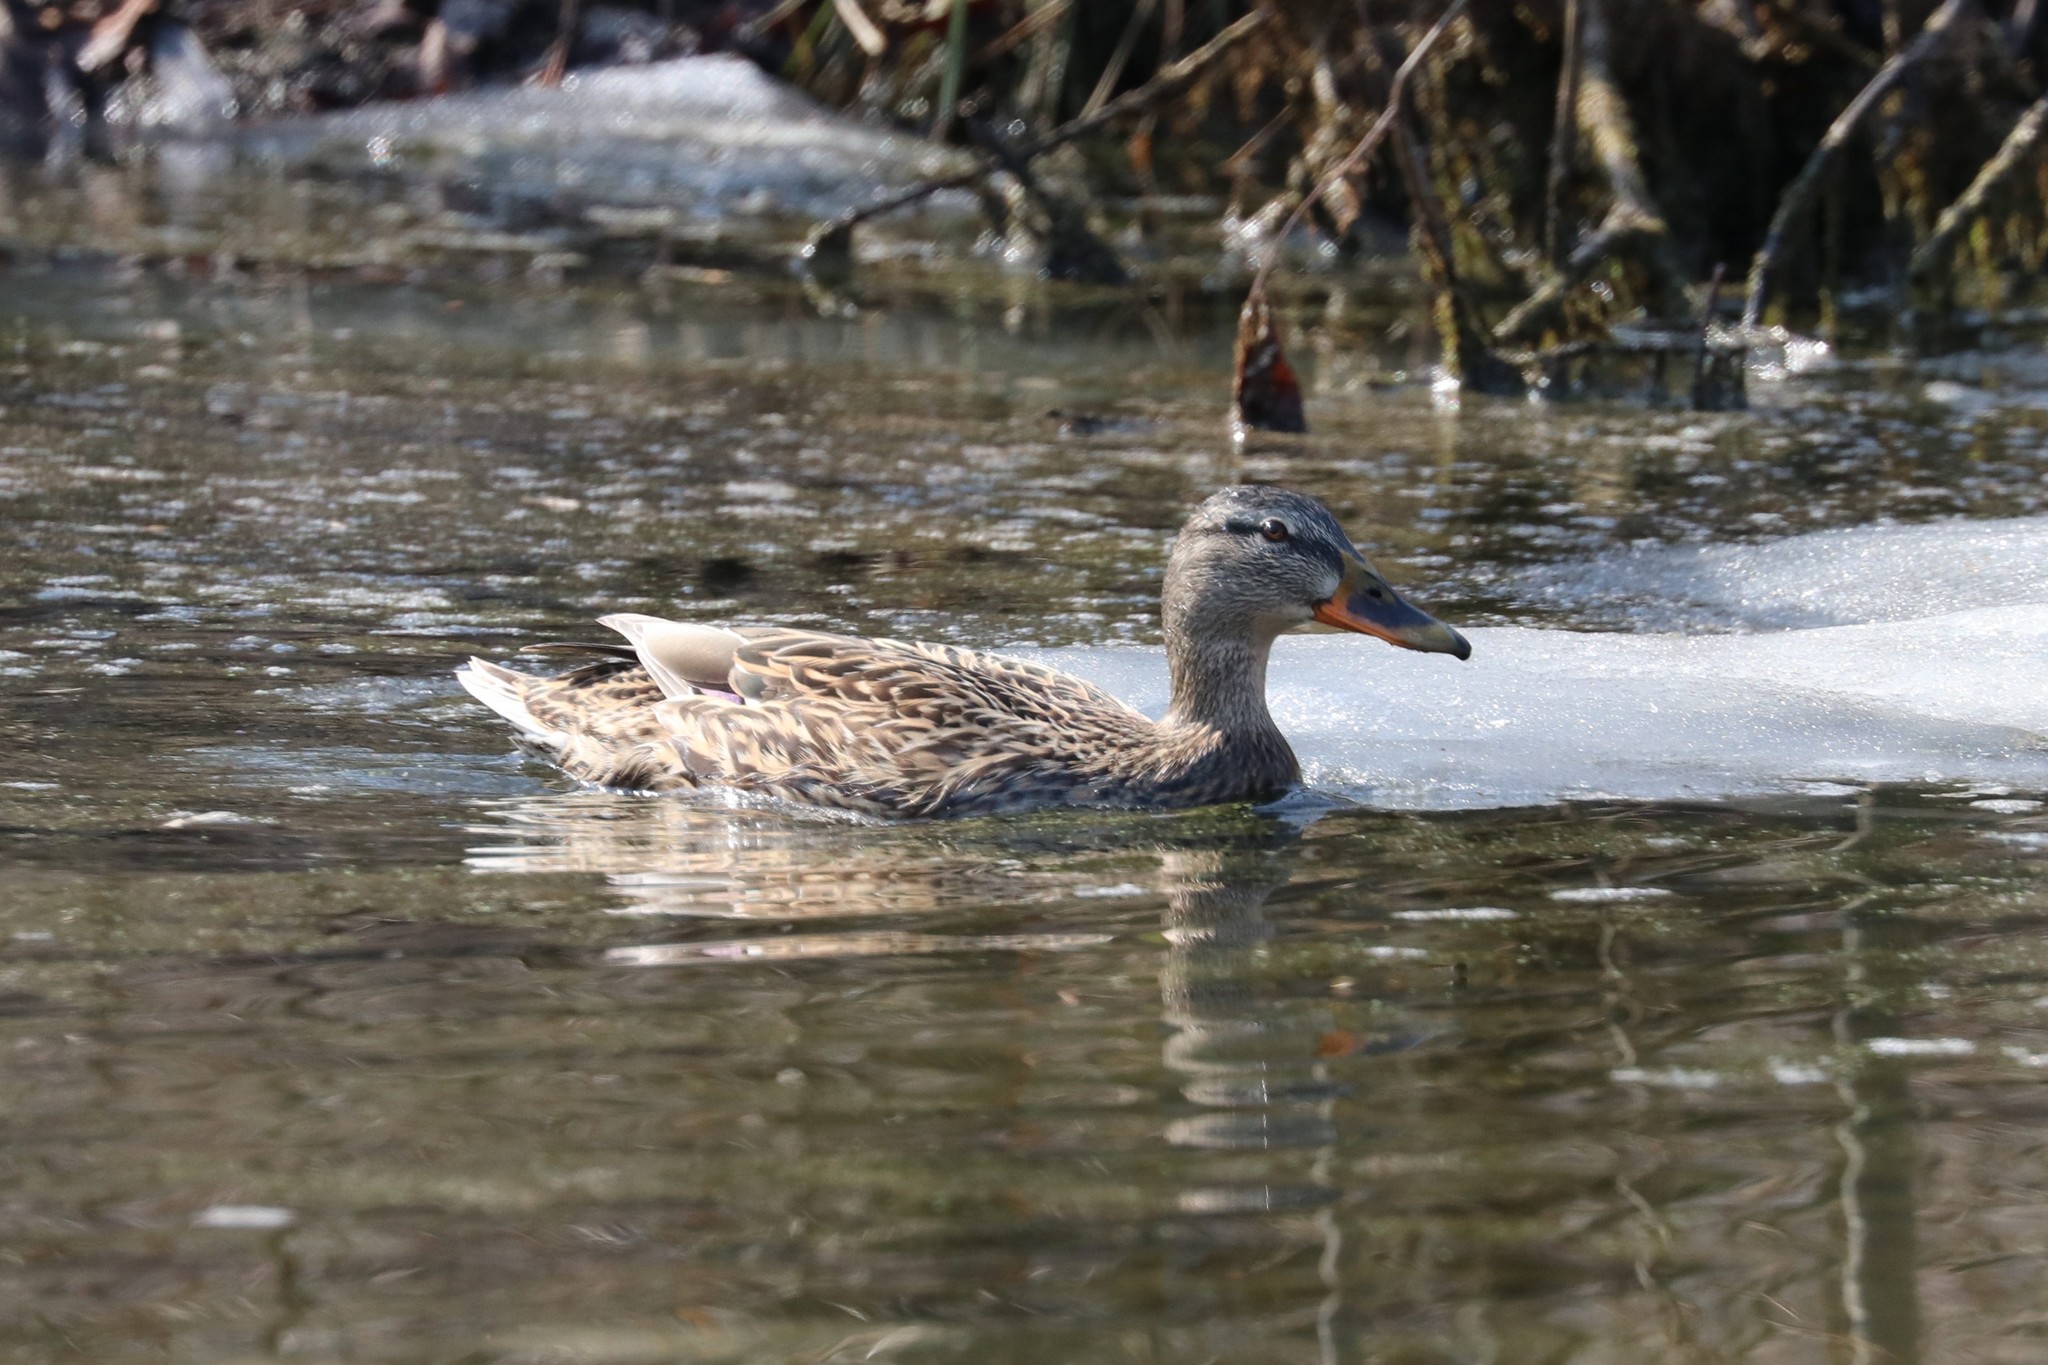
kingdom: Animalia
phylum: Chordata
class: Aves
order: Anseriformes
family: Anatidae
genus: Anas
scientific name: Anas platyrhynchos
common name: Mallard
